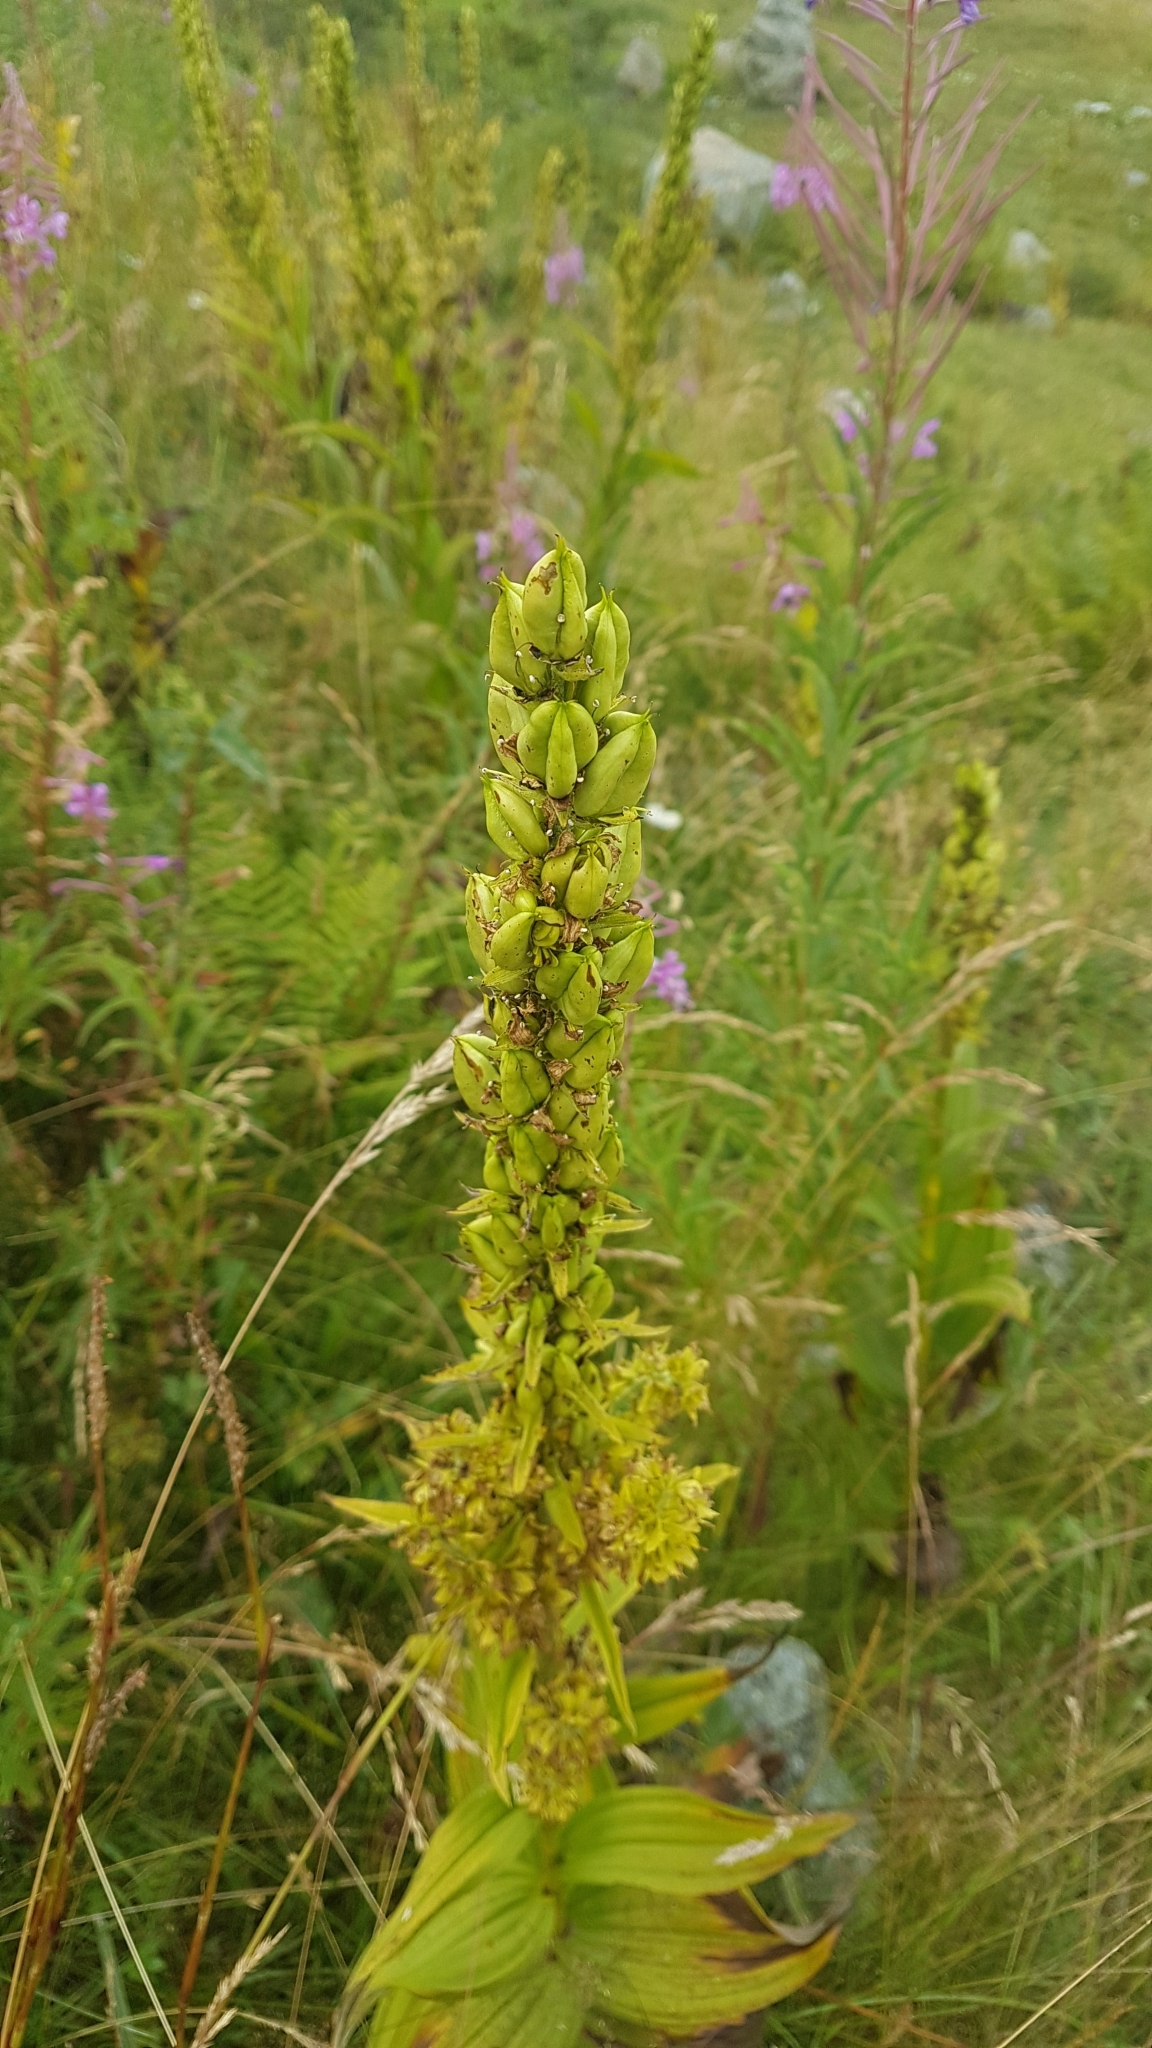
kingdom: Plantae
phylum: Tracheophyta
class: Liliopsida
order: Liliales
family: Melanthiaceae
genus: Veratrum
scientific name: Veratrum album
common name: White veratrum
